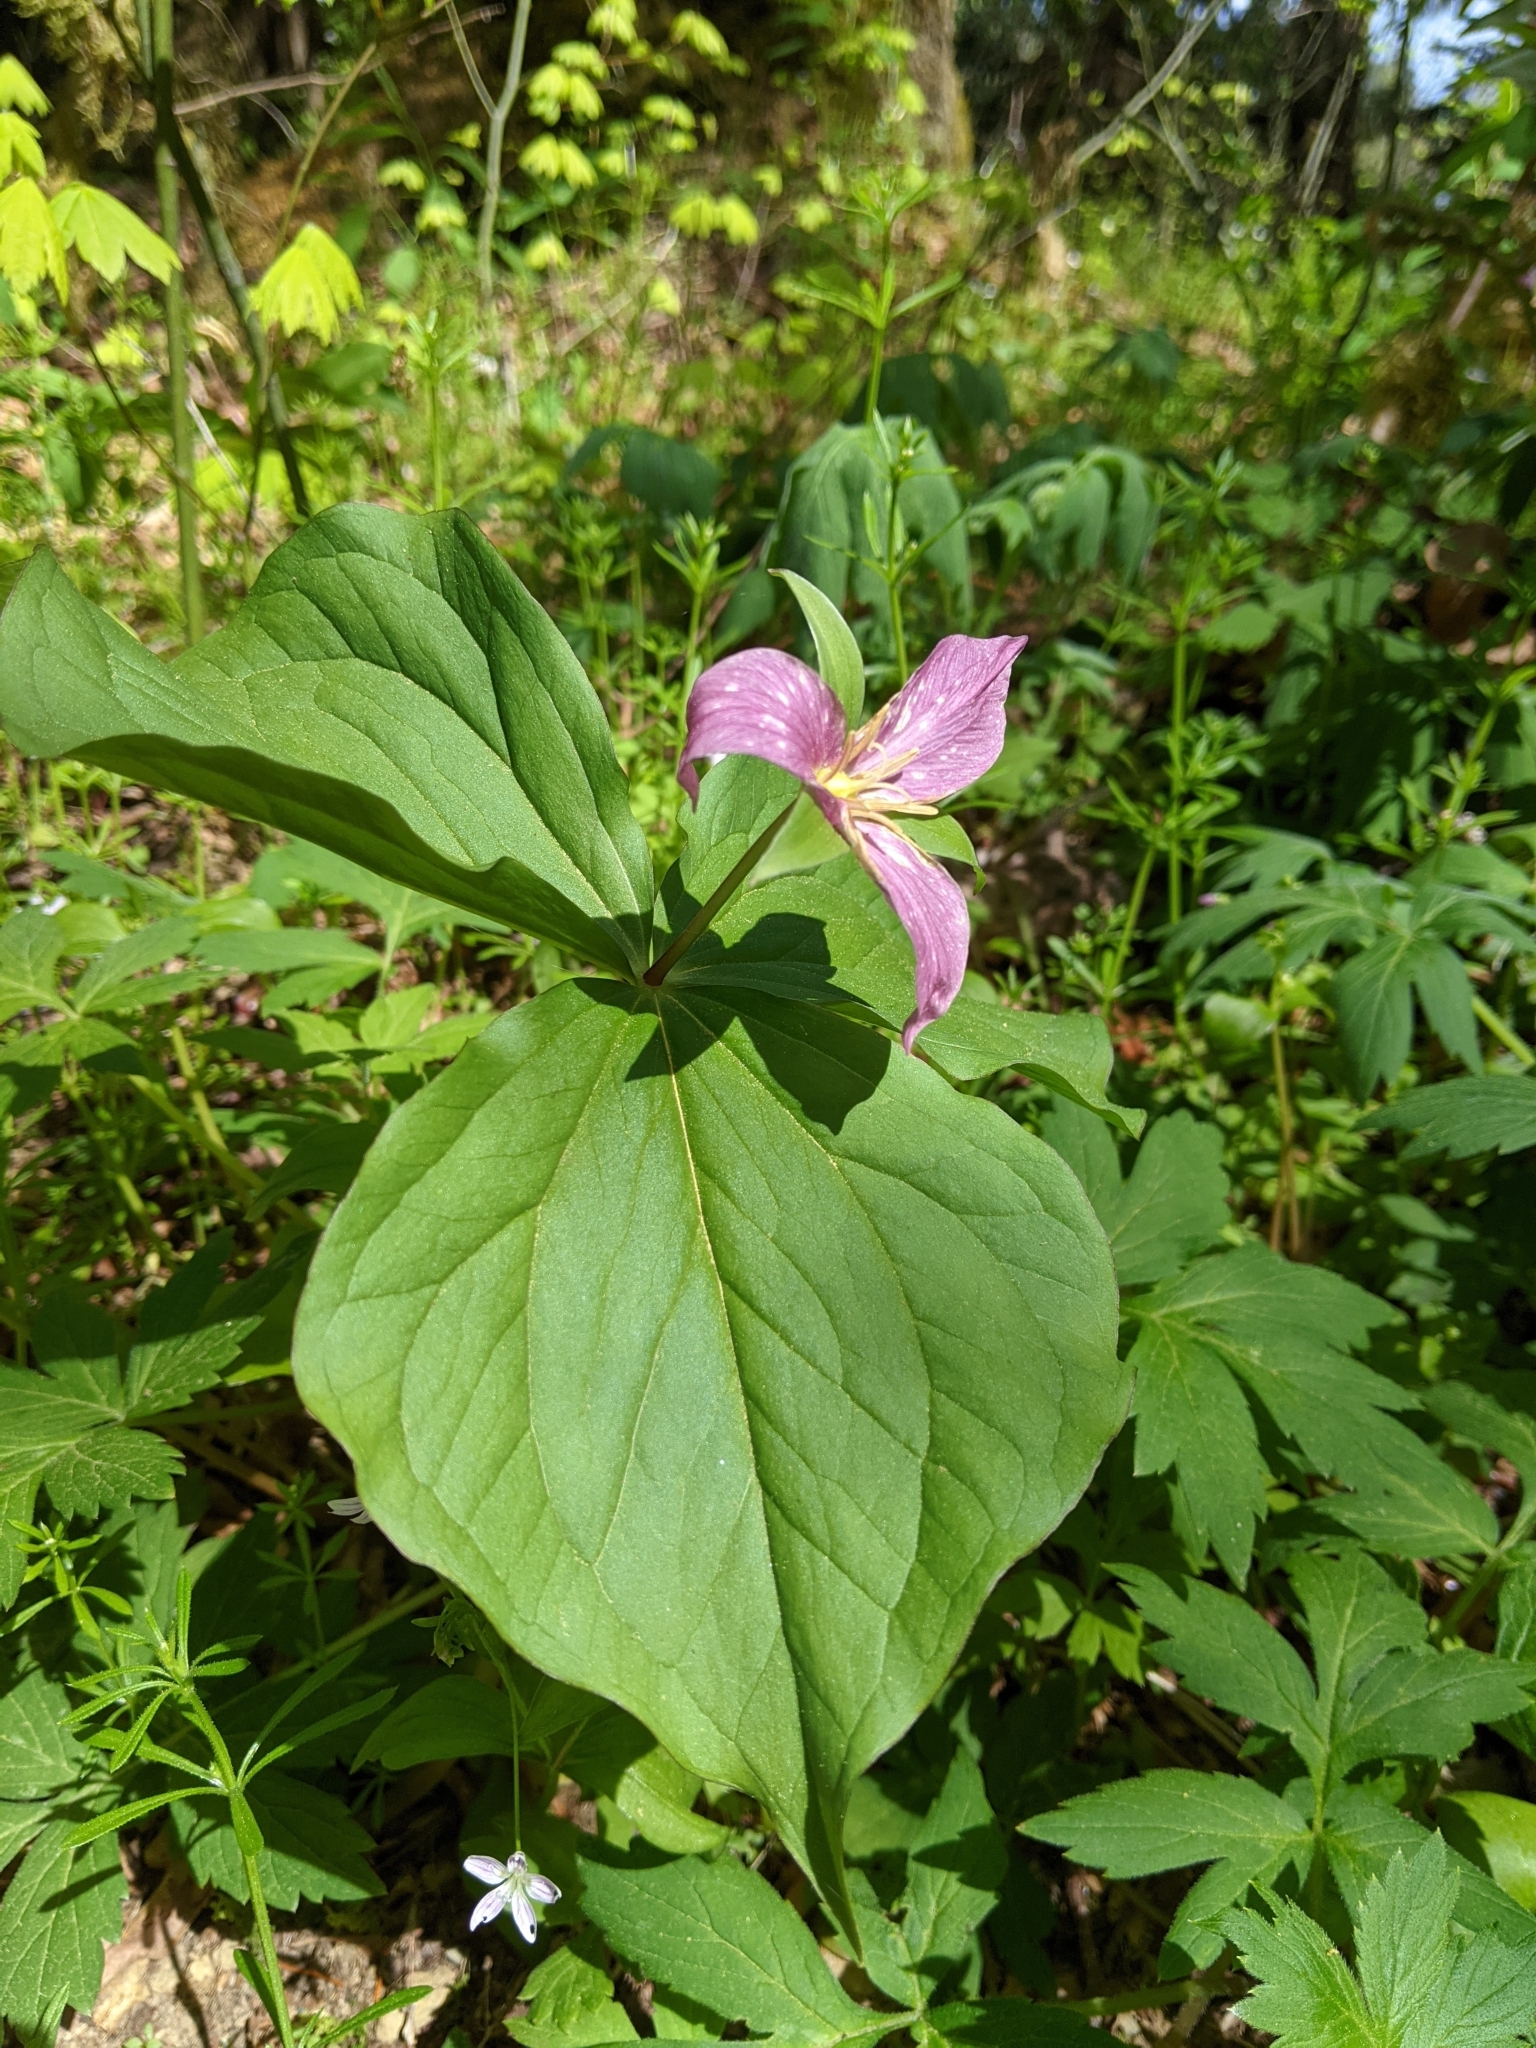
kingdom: Plantae
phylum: Tracheophyta
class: Liliopsida
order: Liliales
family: Melanthiaceae
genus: Trillium
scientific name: Trillium ovatum
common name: Pacific trillium
